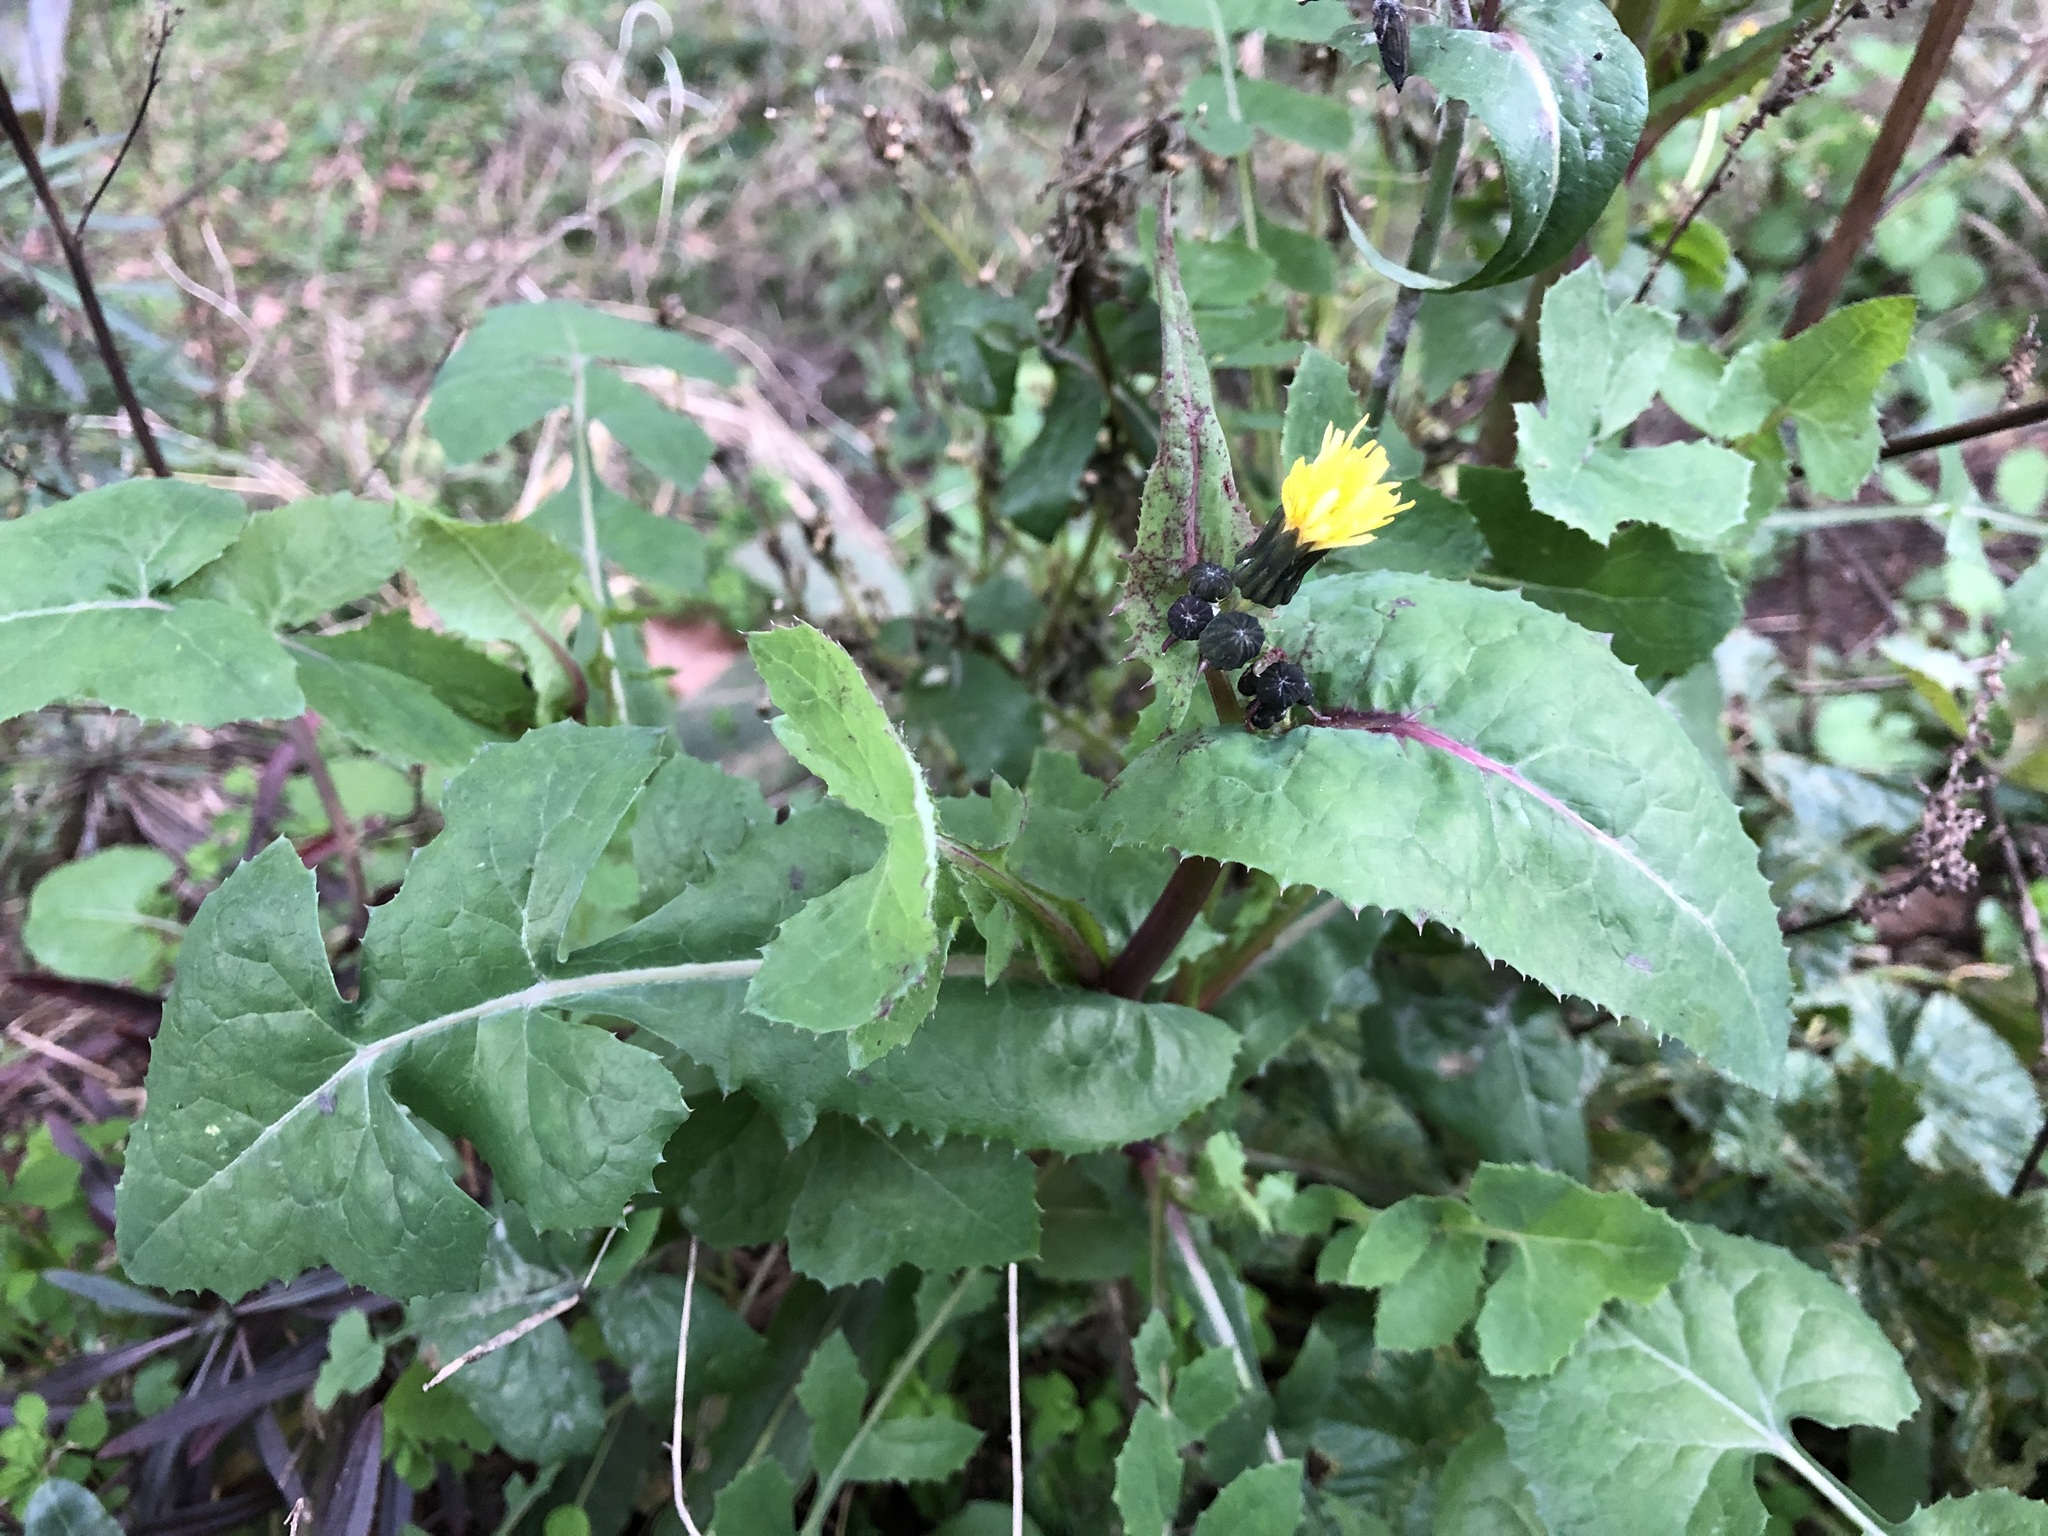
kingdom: Plantae
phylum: Tracheophyta
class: Magnoliopsida
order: Asterales
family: Asteraceae
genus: Sonchus
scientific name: Sonchus oleraceus
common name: Common sowthistle
